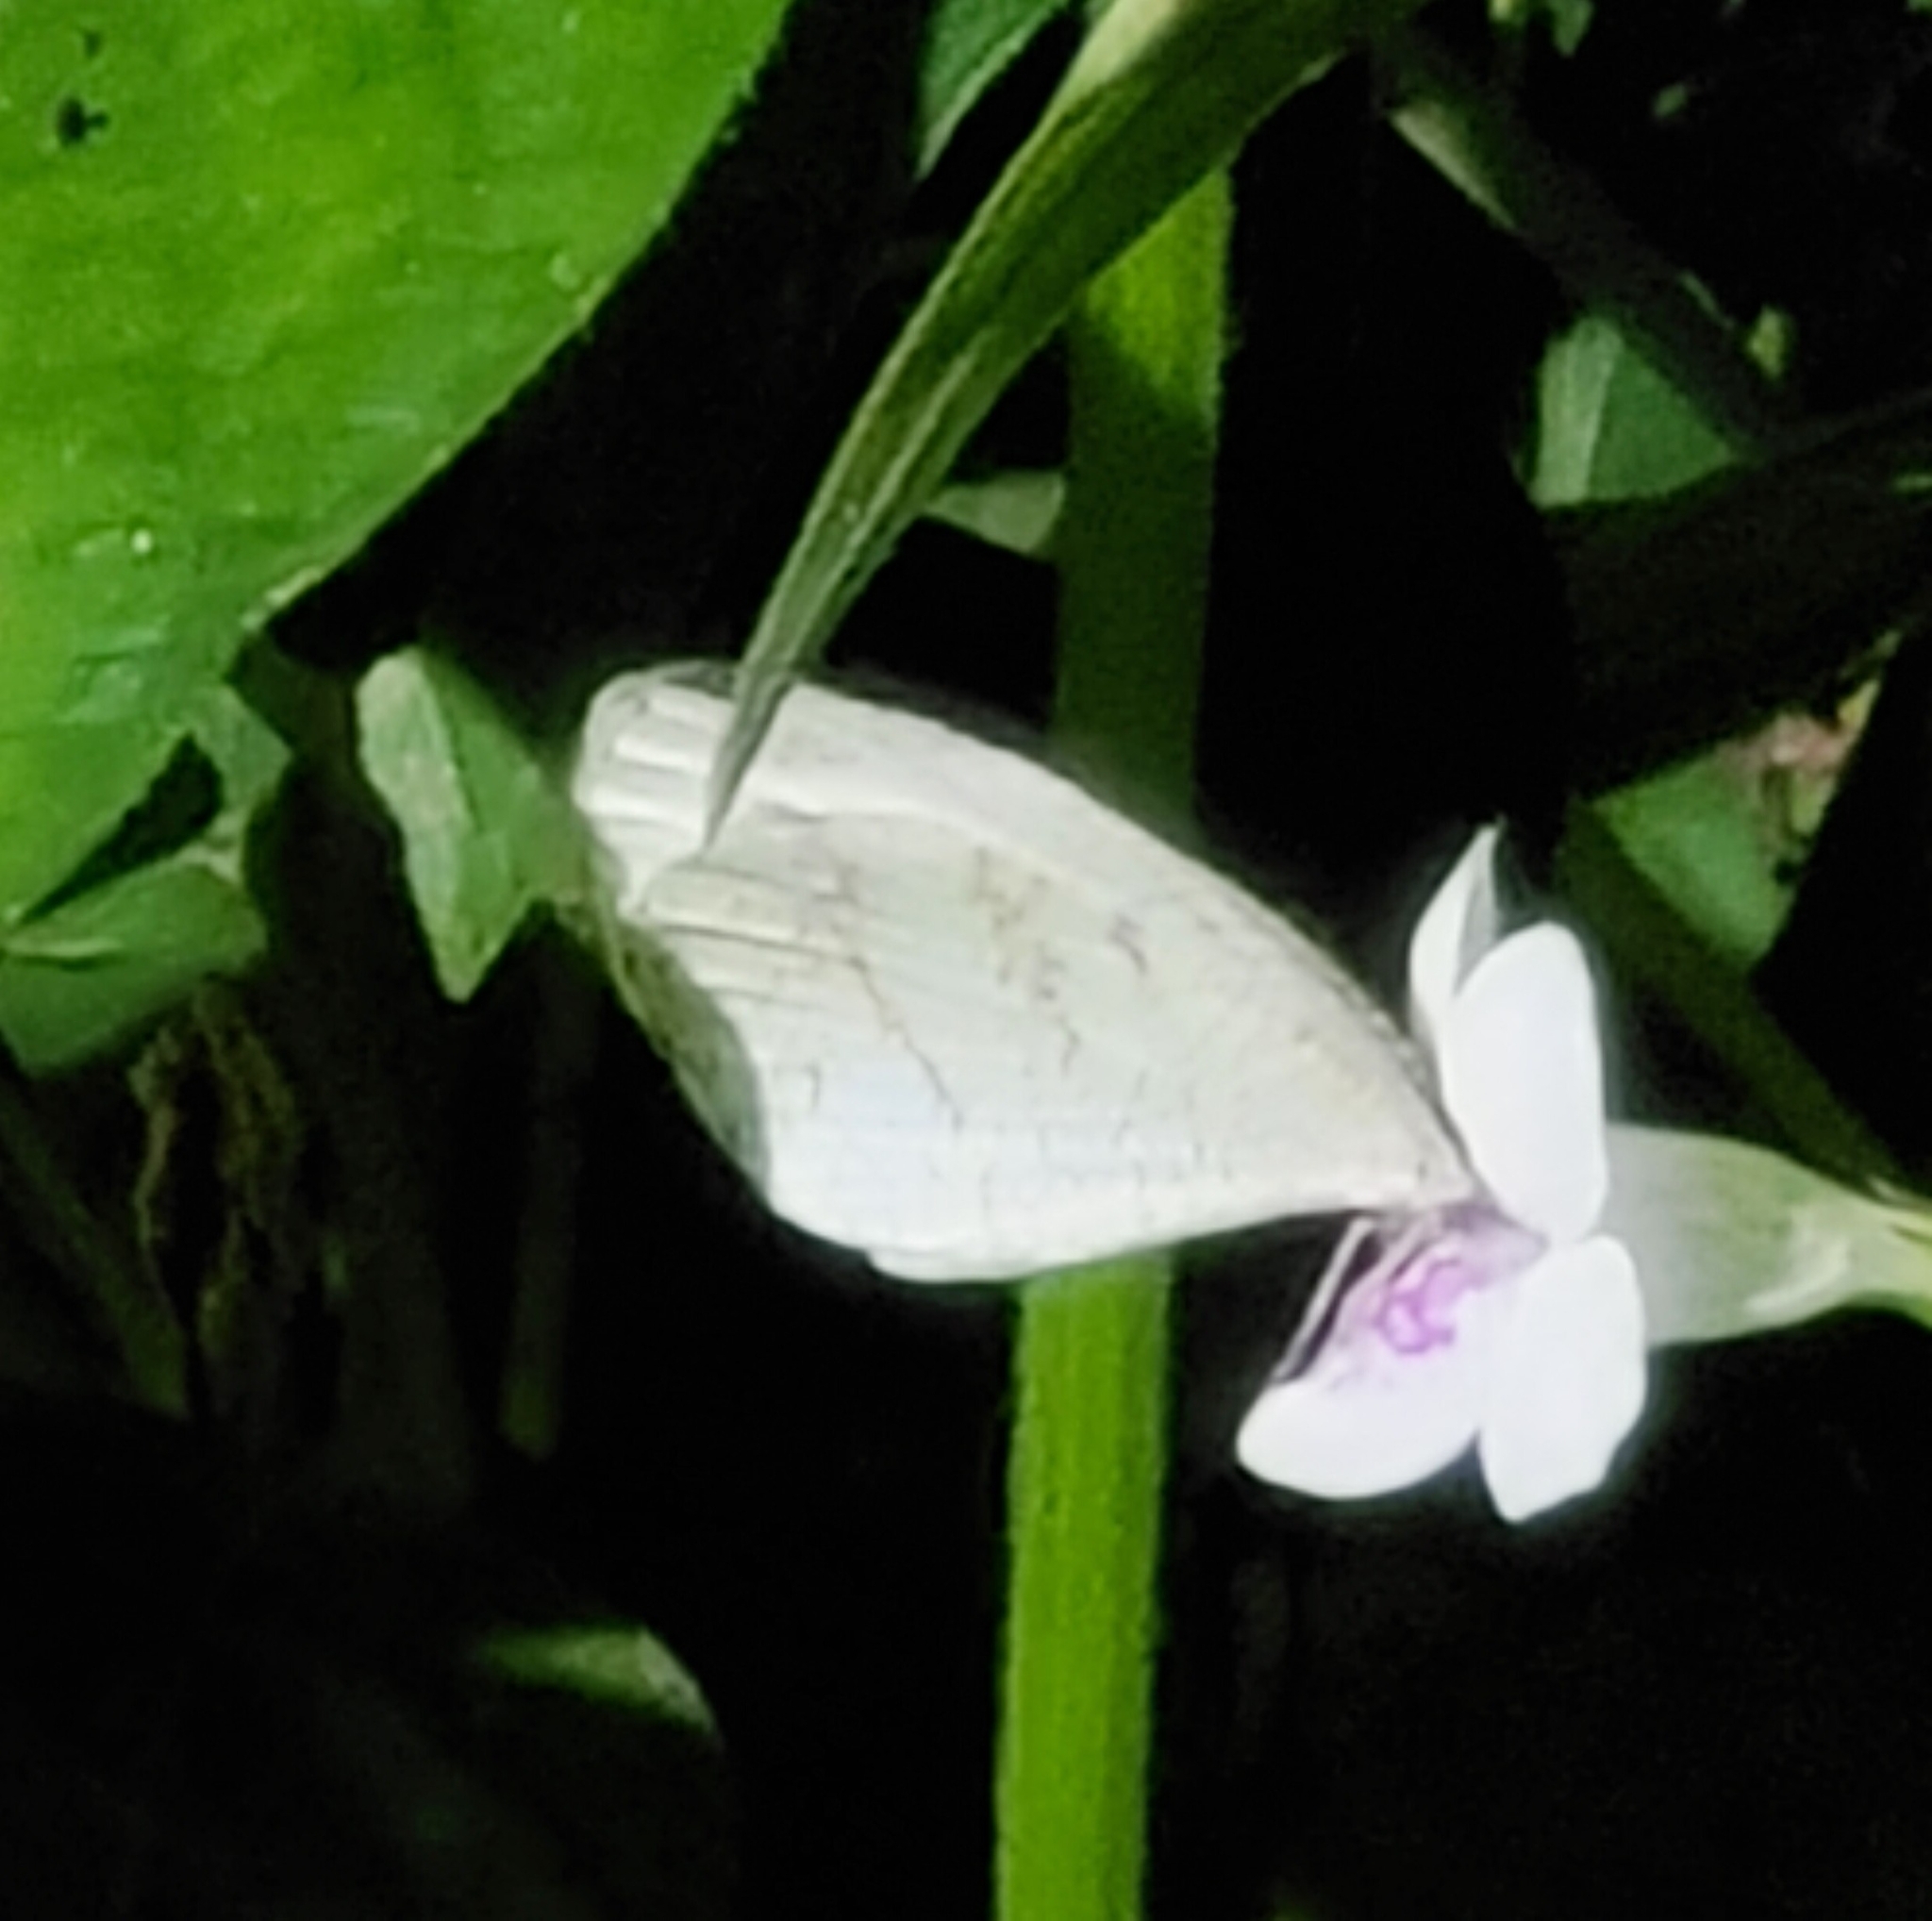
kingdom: Animalia
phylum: Arthropoda
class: Insecta
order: Lepidoptera
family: Pieridae
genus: Leptosia
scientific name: Leptosia nina
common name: Psyche
